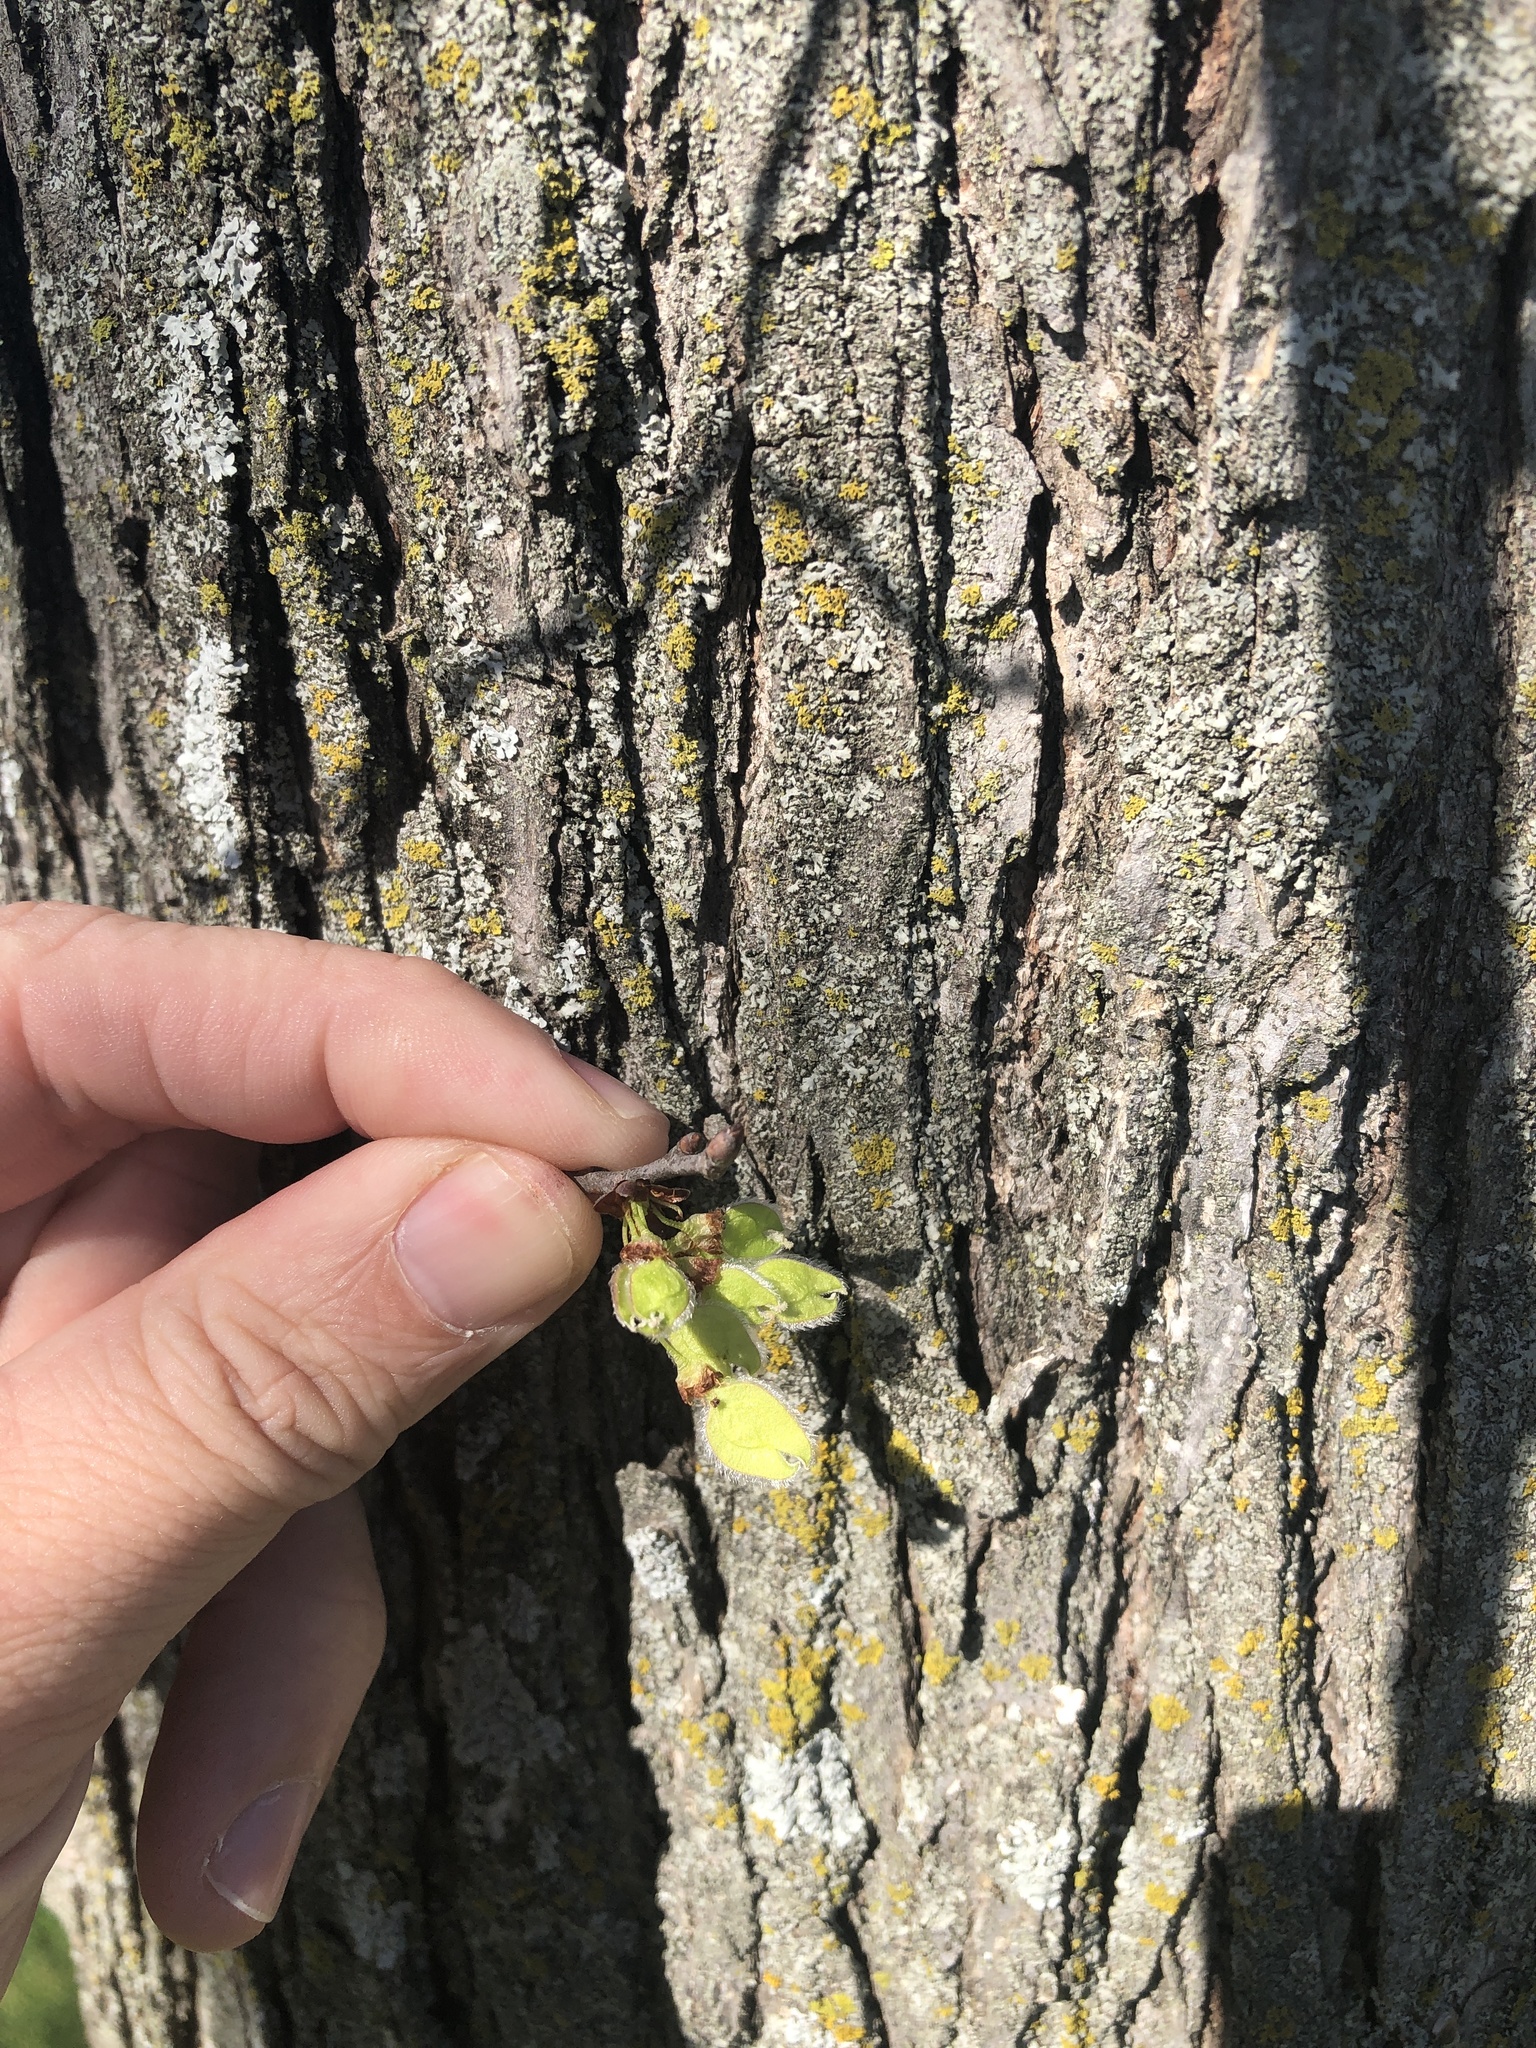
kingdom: Plantae
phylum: Tracheophyta
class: Magnoliopsida
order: Rosales
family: Ulmaceae
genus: Ulmus
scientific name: Ulmus americana
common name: American elm
